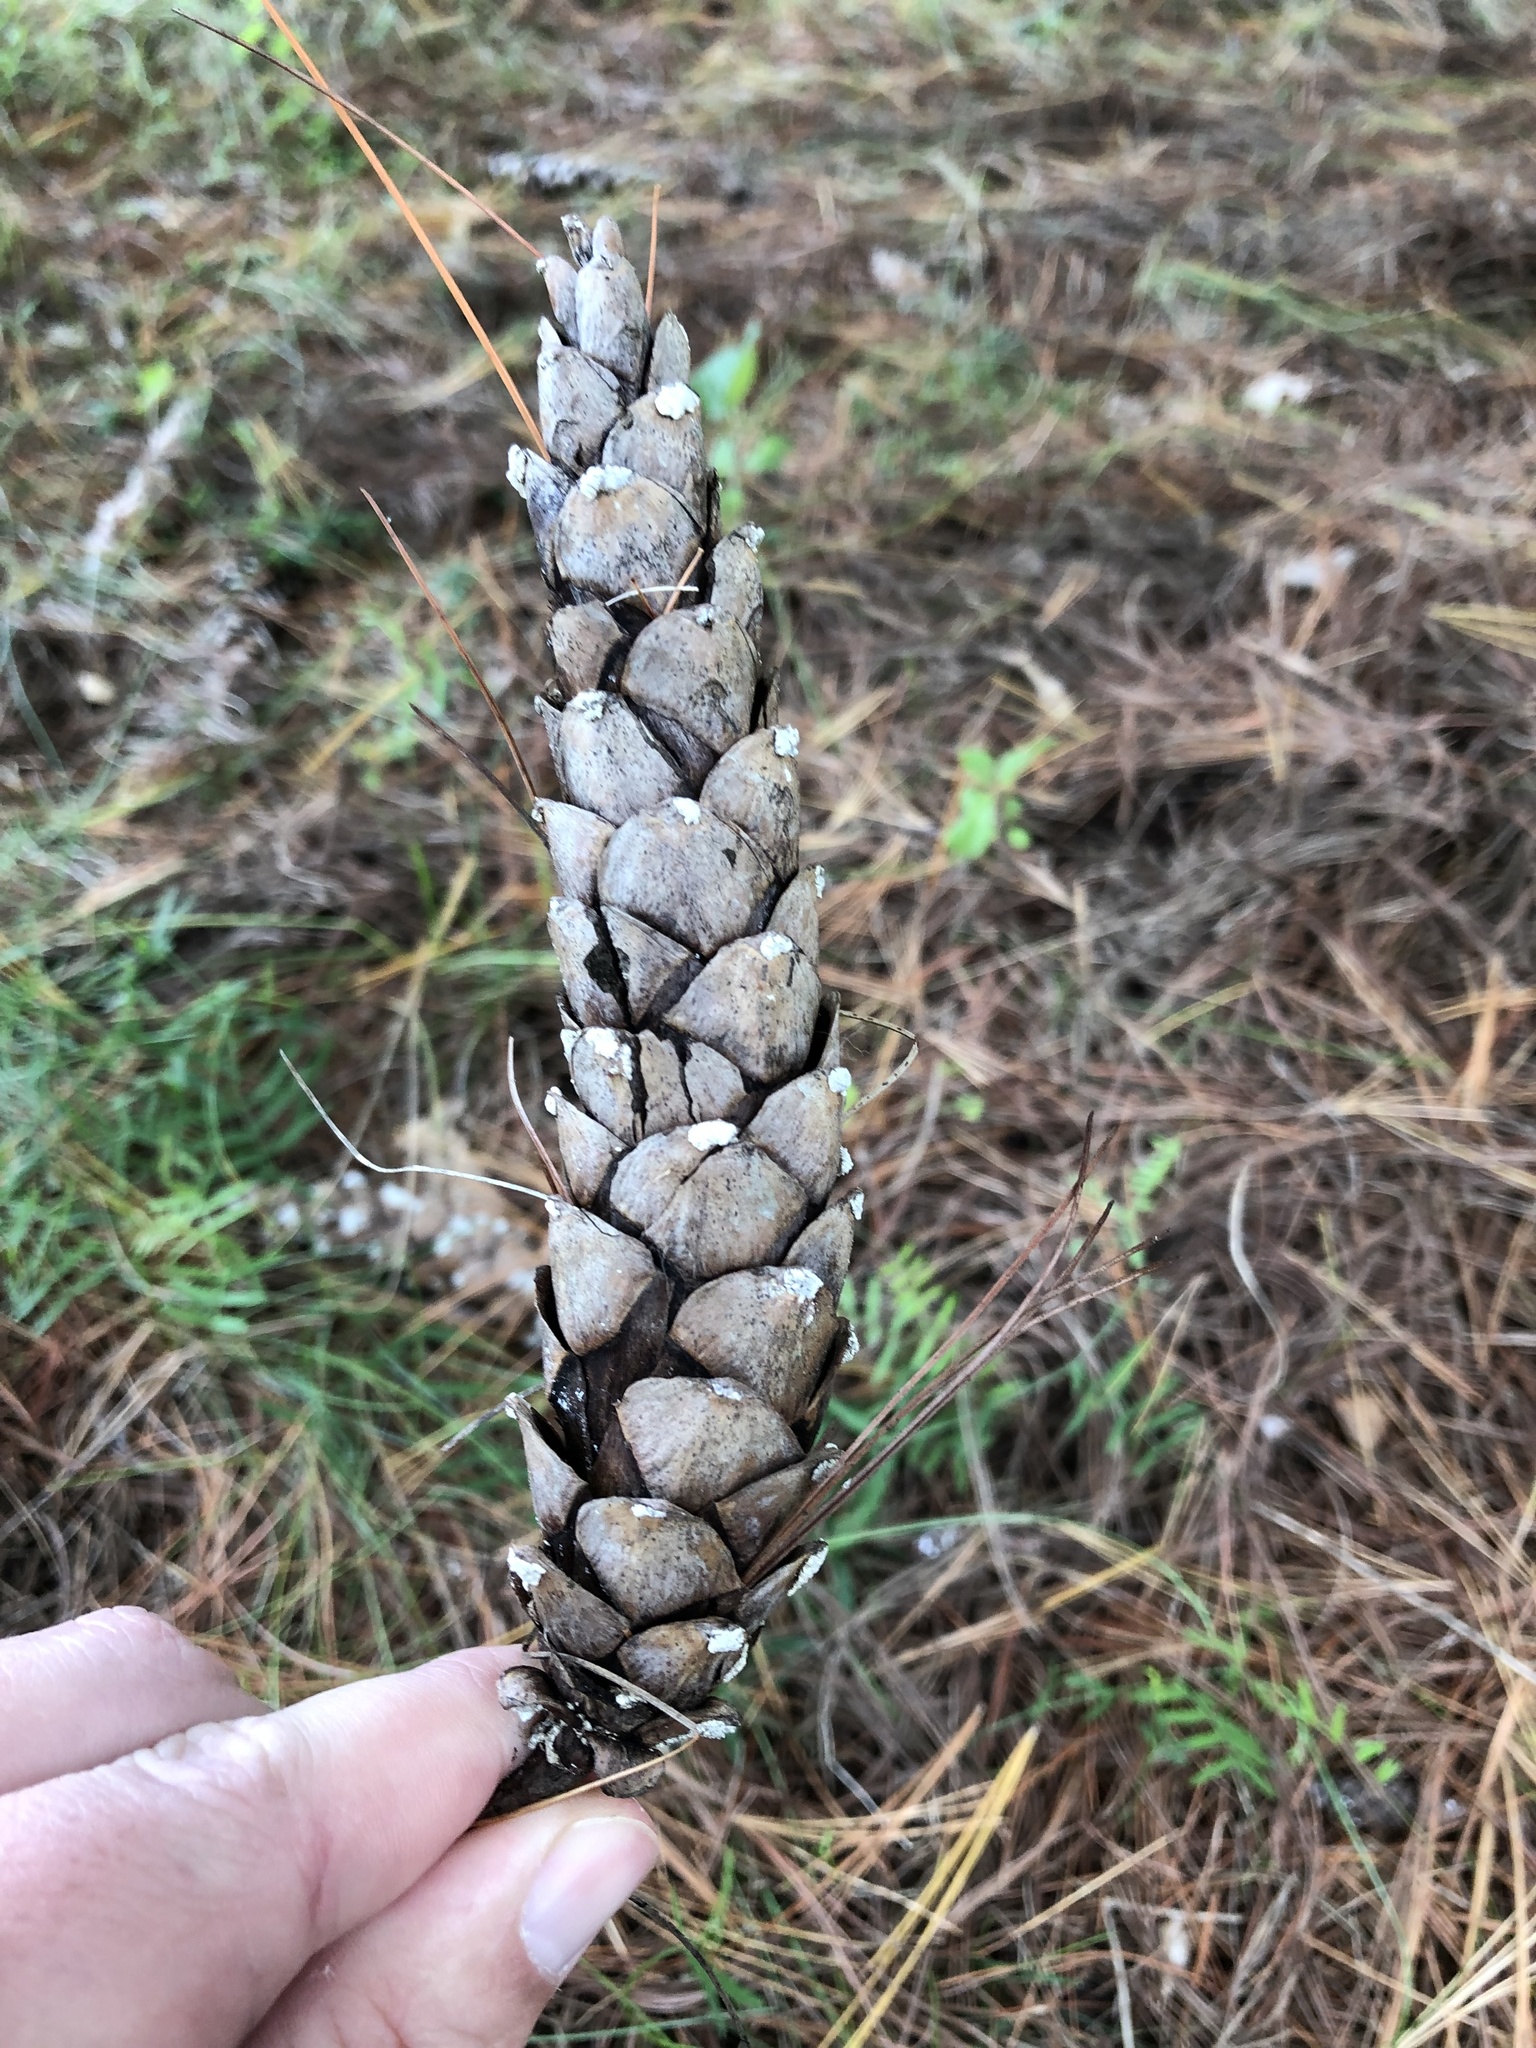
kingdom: Plantae
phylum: Tracheophyta
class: Pinopsida
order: Pinales
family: Pinaceae
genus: Pinus
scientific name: Pinus strobus
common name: Weymouth pine
